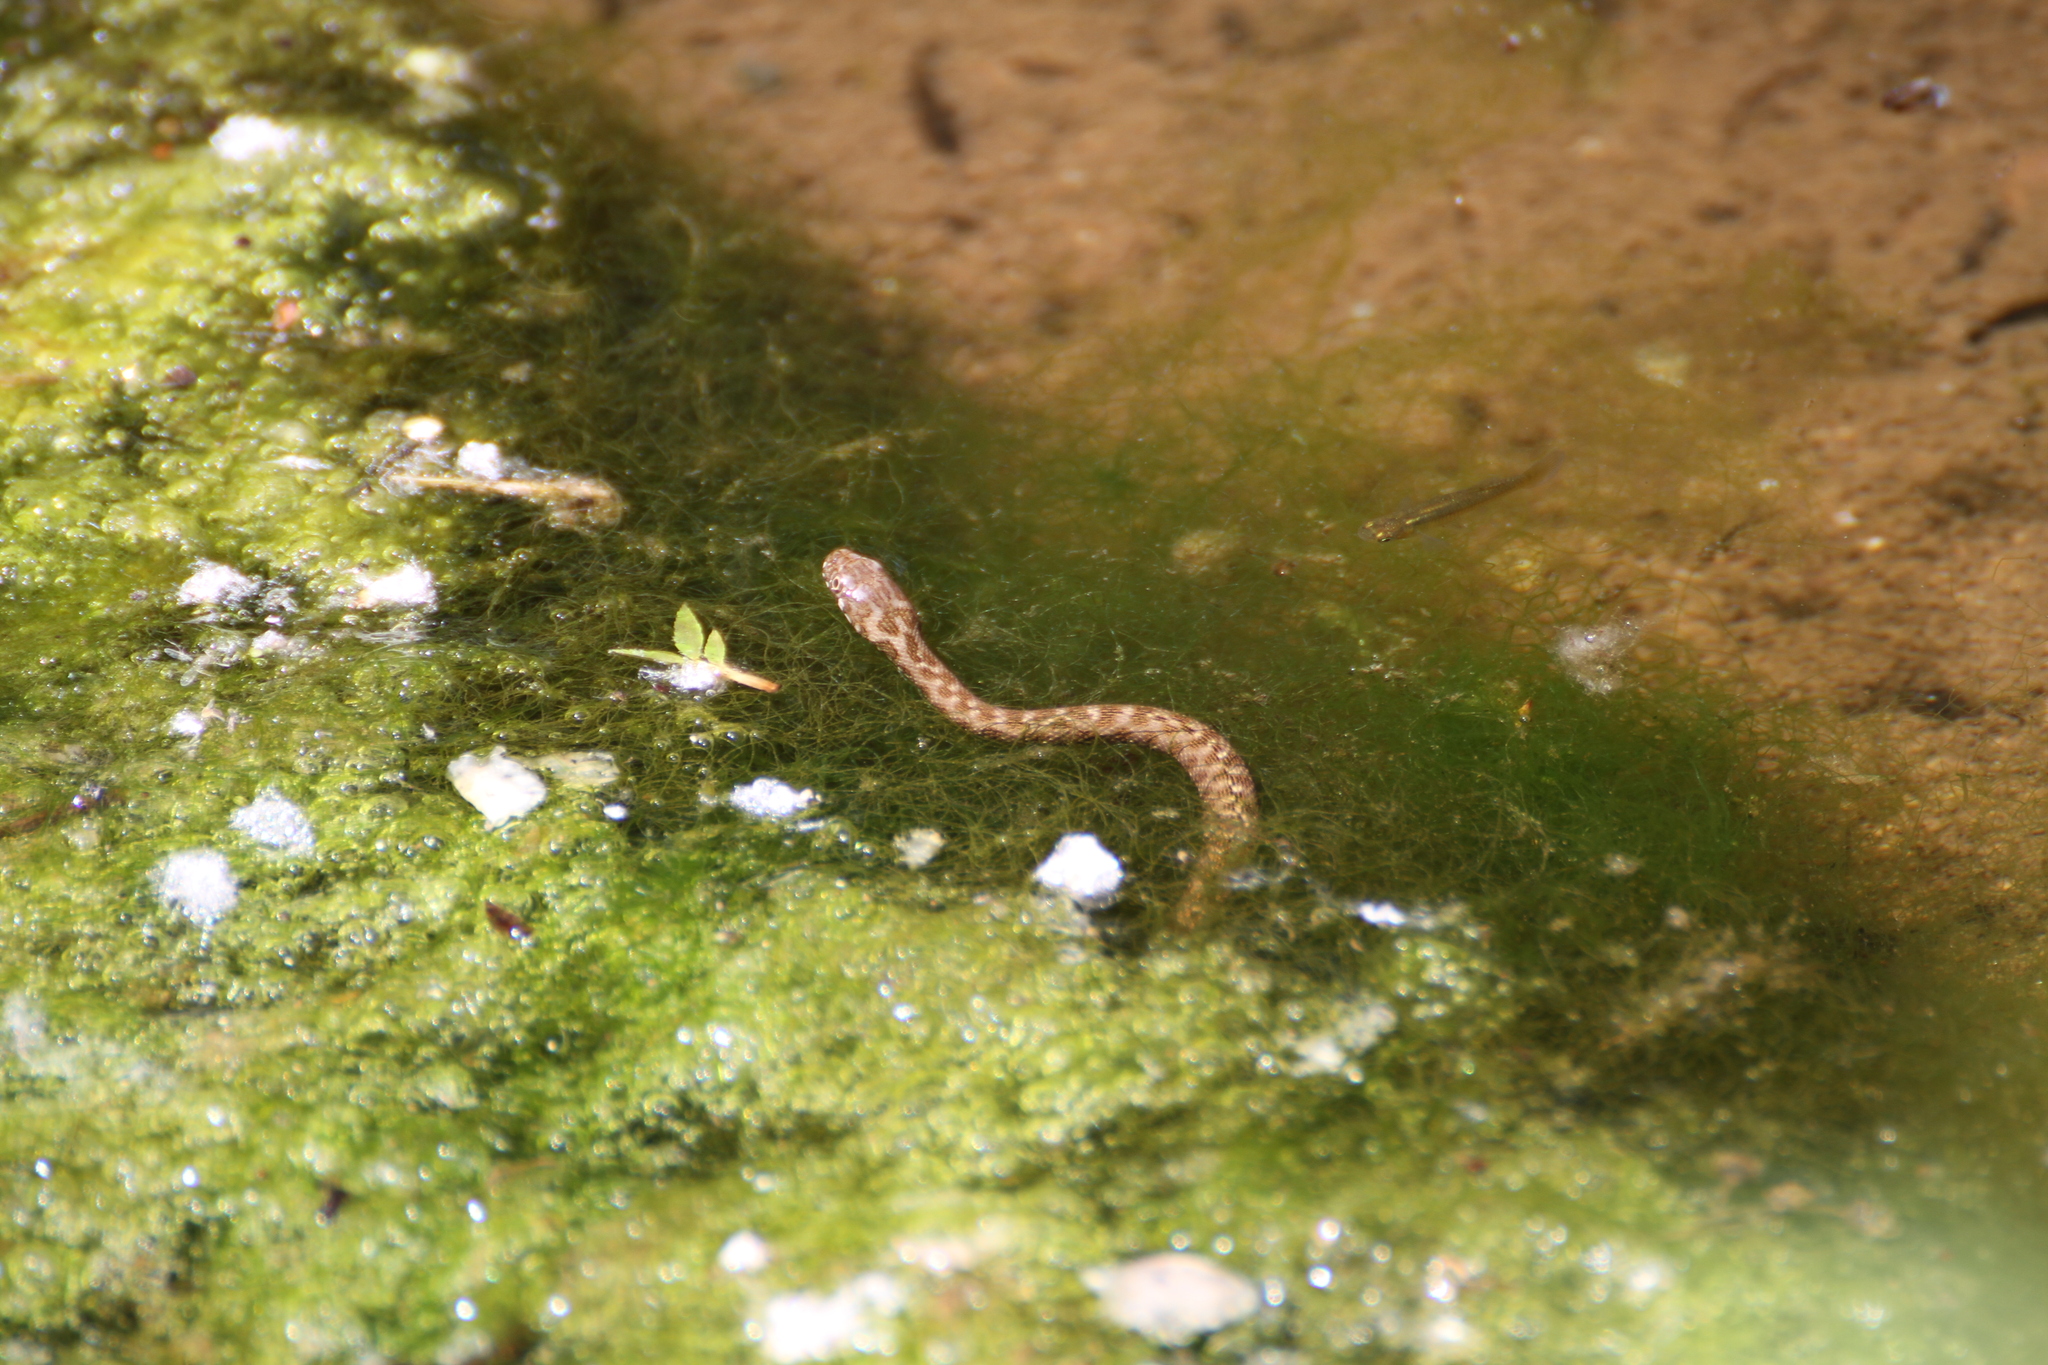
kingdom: Animalia
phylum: Chordata
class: Squamata
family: Colubridae
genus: Natrix
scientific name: Natrix maura
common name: Viperine water snake
